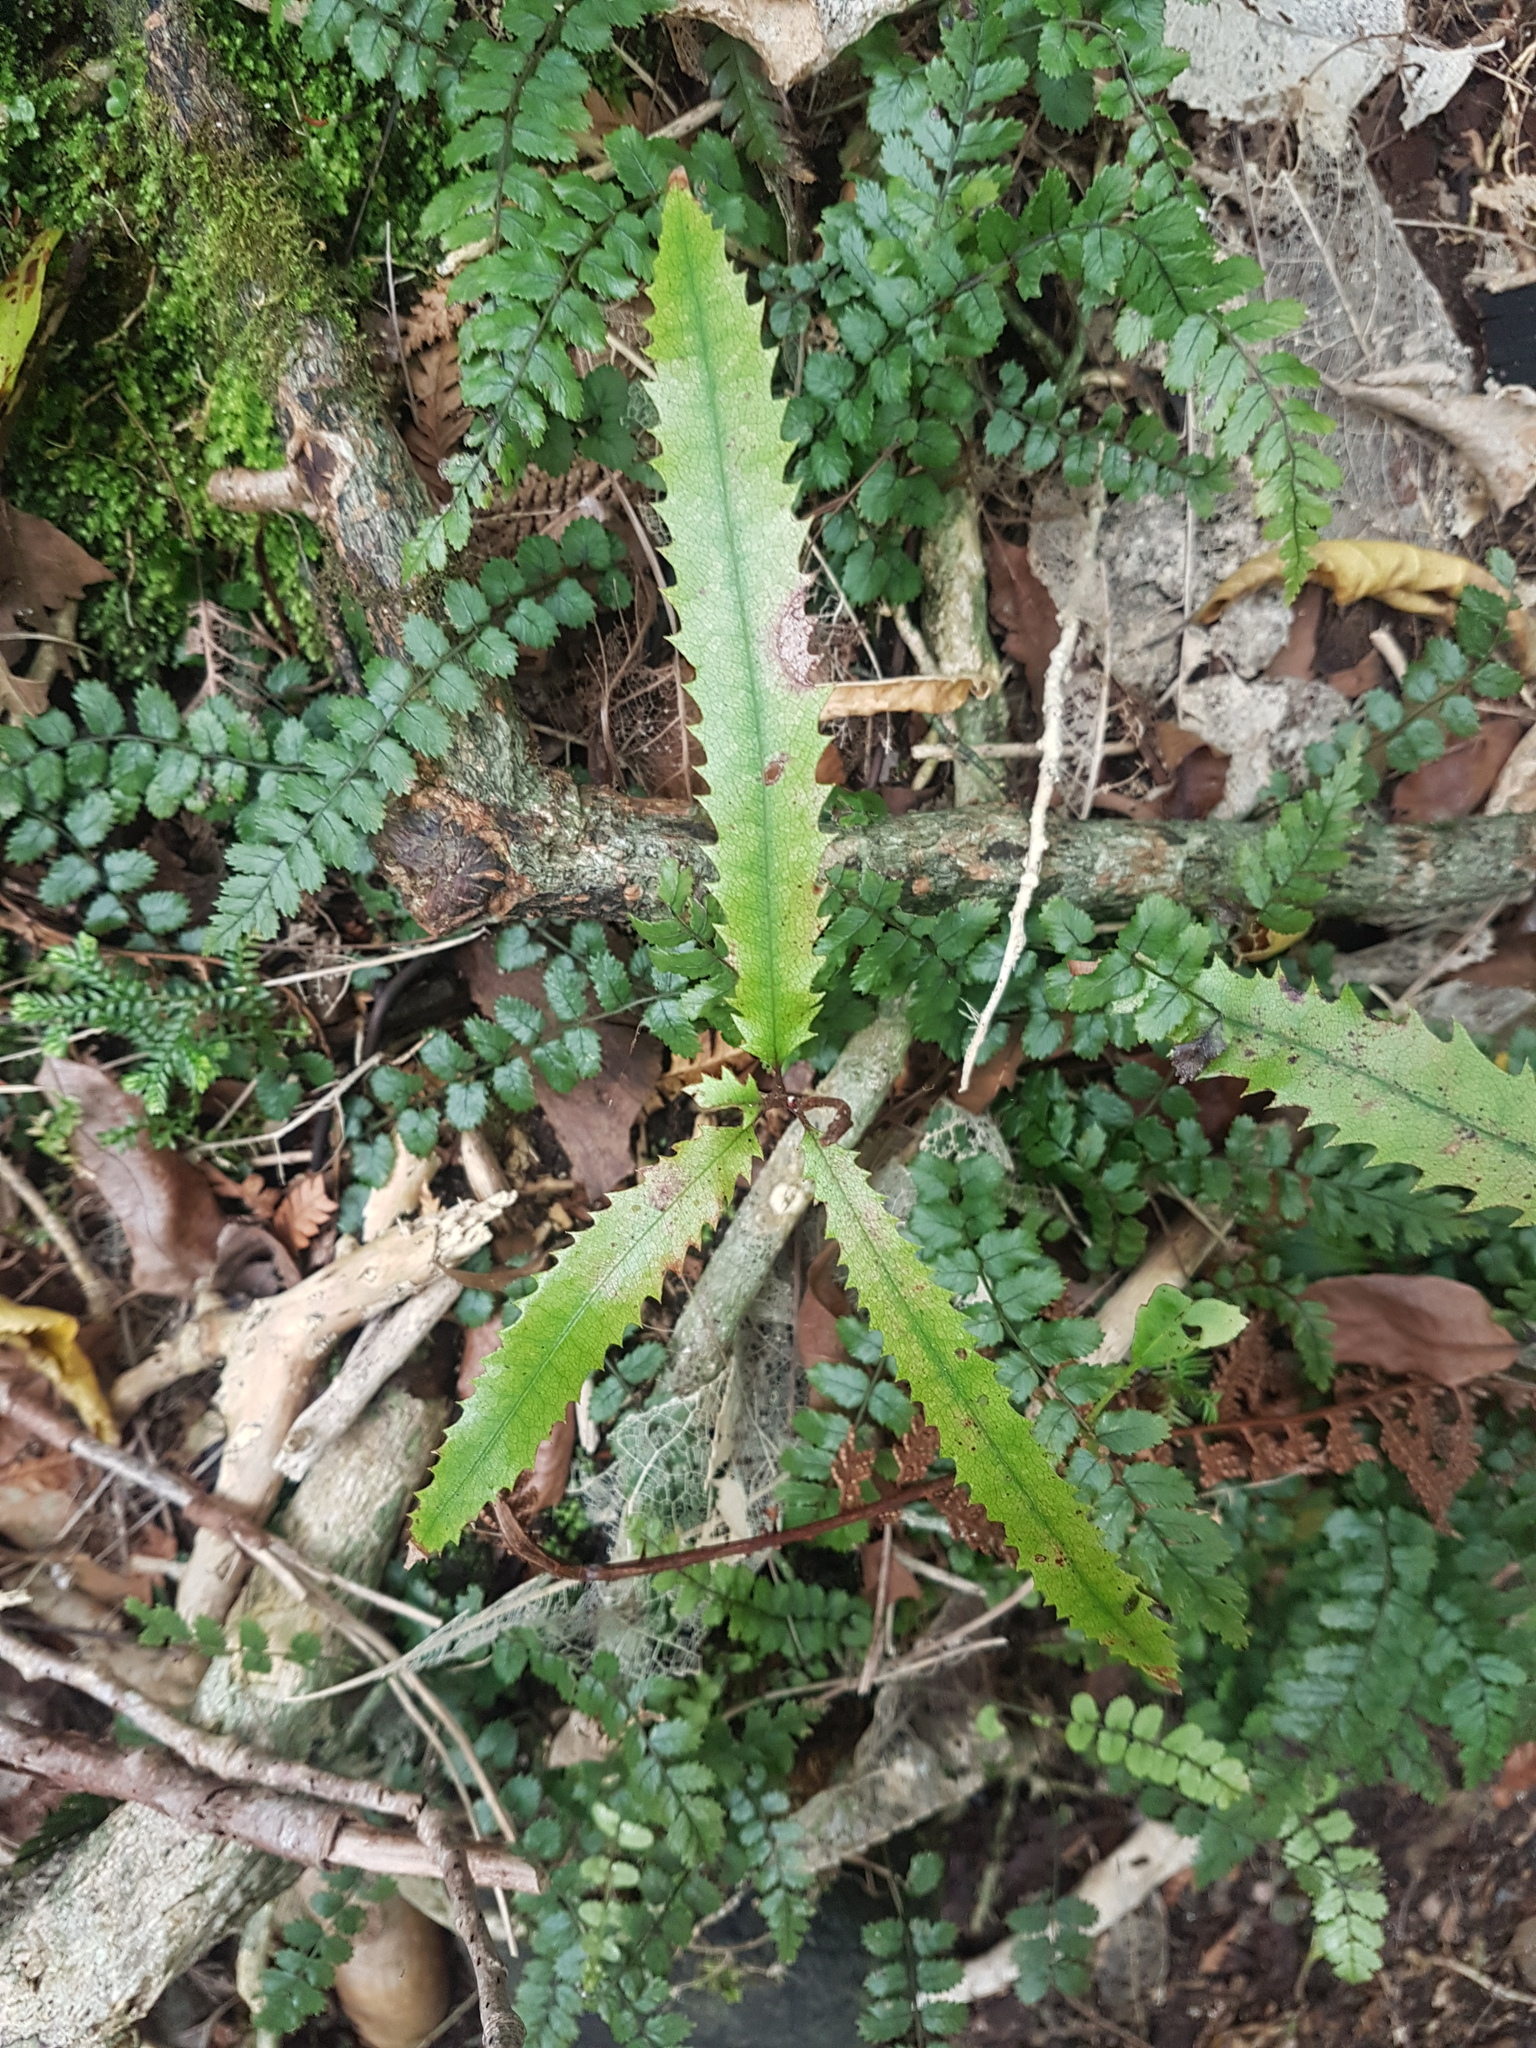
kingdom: Plantae
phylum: Tracheophyta
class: Magnoliopsida
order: Proteales
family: Proteaceae
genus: Knightia
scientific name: Knightia excelsa
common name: New zealand-honeysuckle
